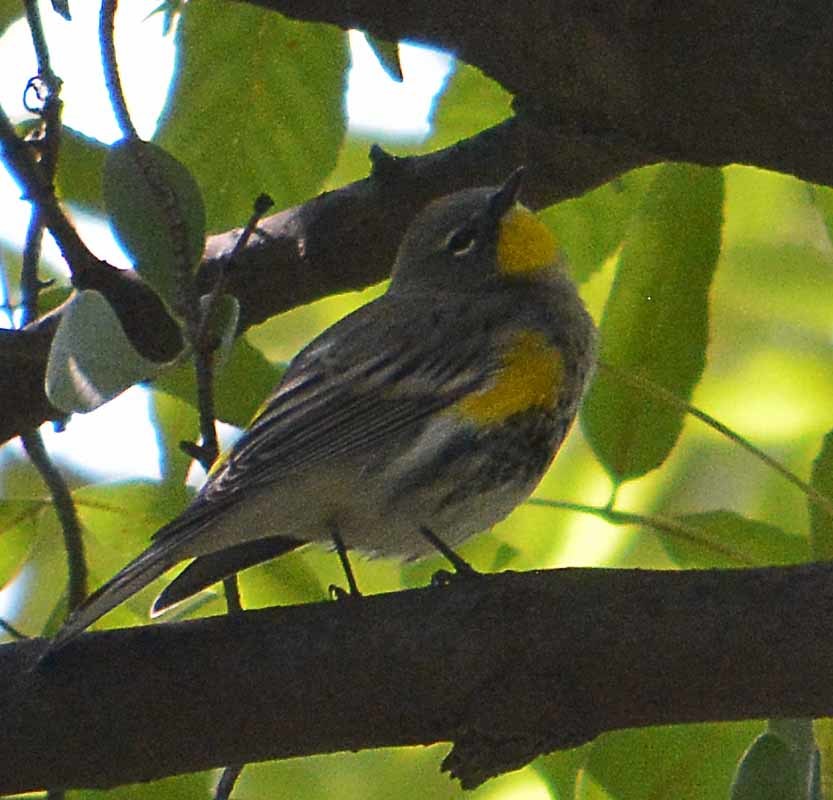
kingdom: Animalia
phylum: Chordata
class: Aves
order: Passeriformes
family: Parulidae
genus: Setophaga
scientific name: Setophaga coronata
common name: Myrtle warbler
